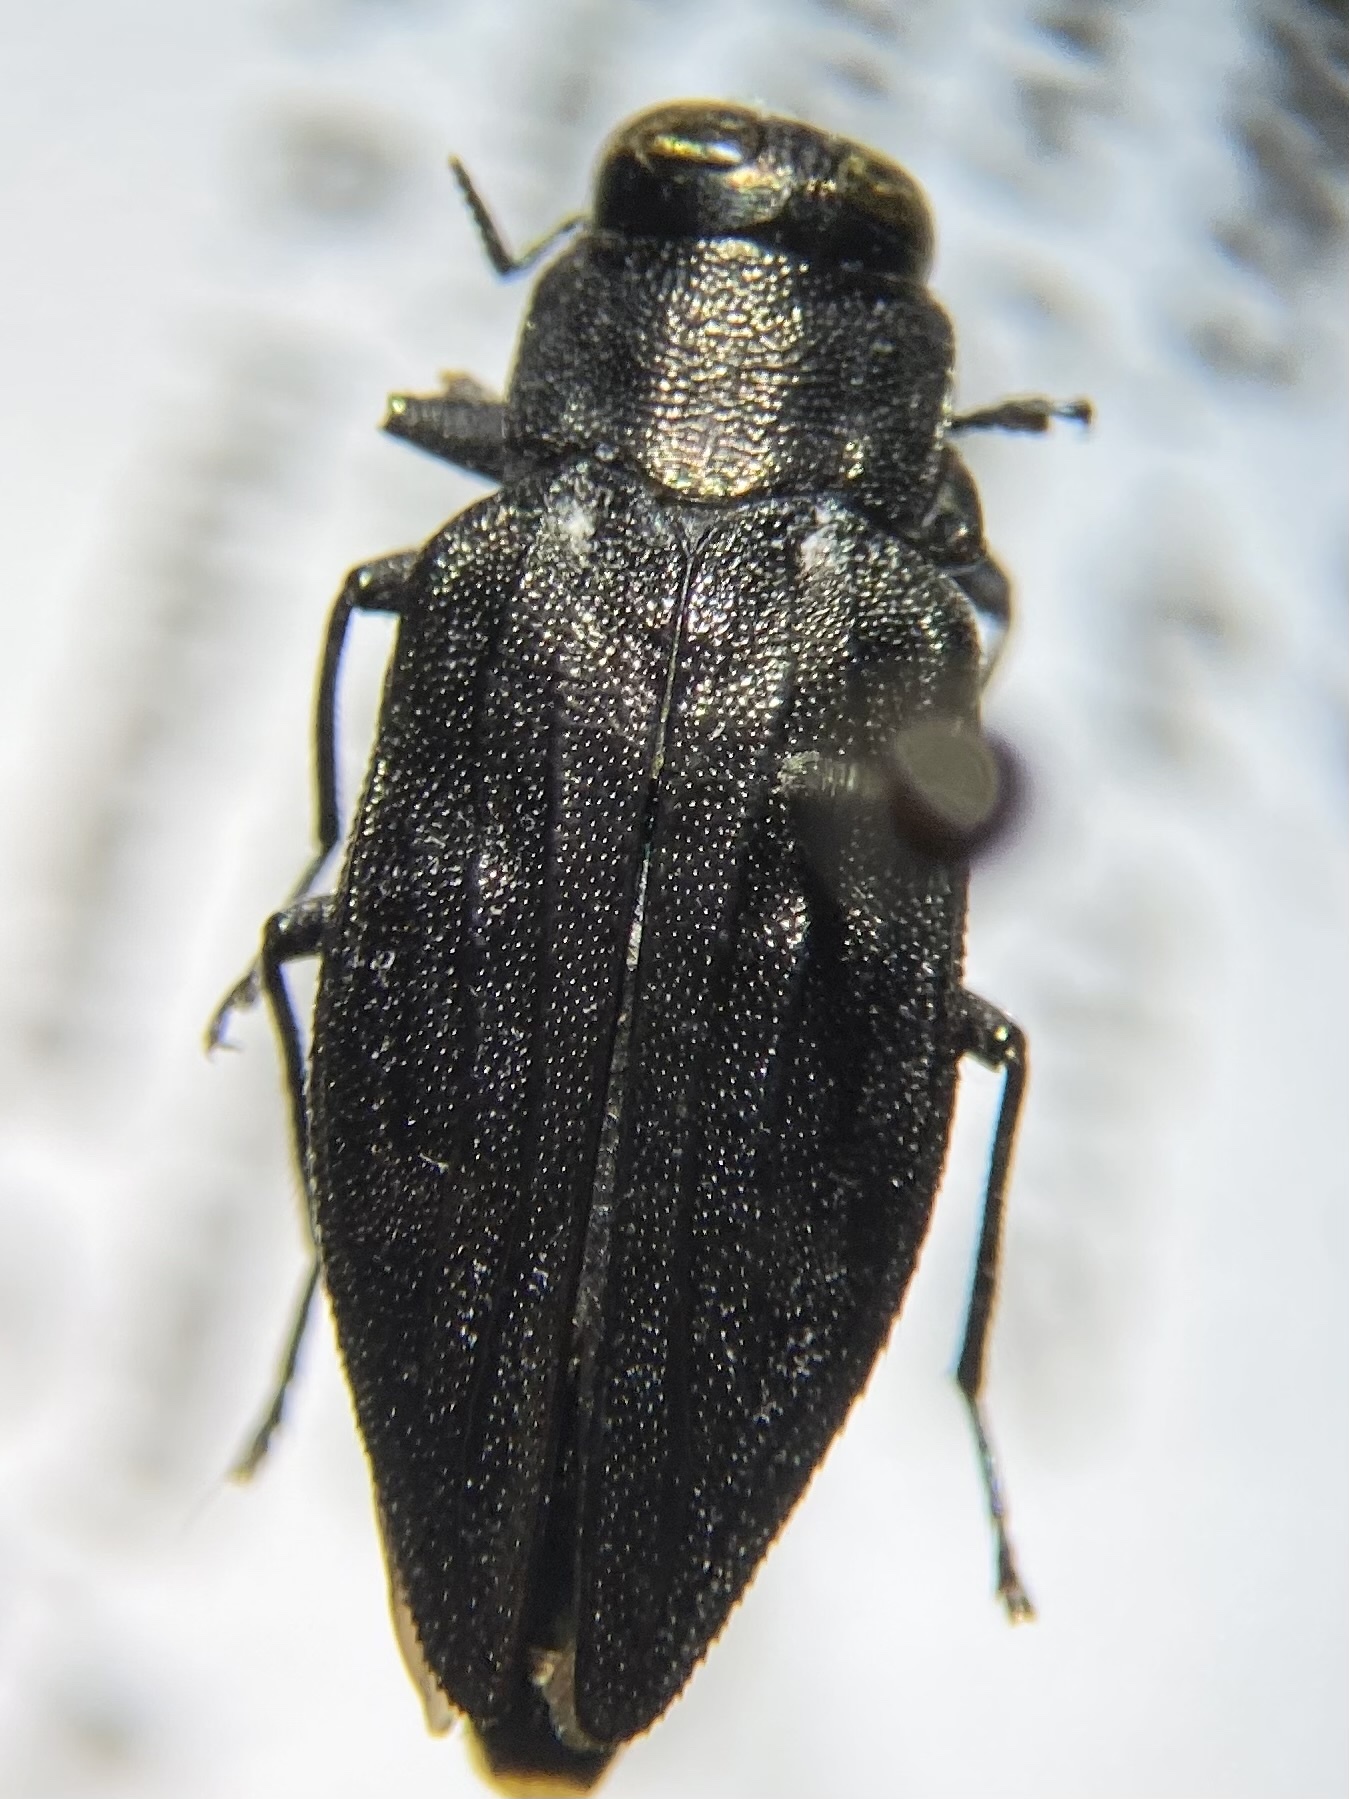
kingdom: Animalia
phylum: Arthropoda
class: Insecta
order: Coleoptera
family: Buprestidae
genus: Chrysobothris
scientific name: Chrysobothris sexsignata
